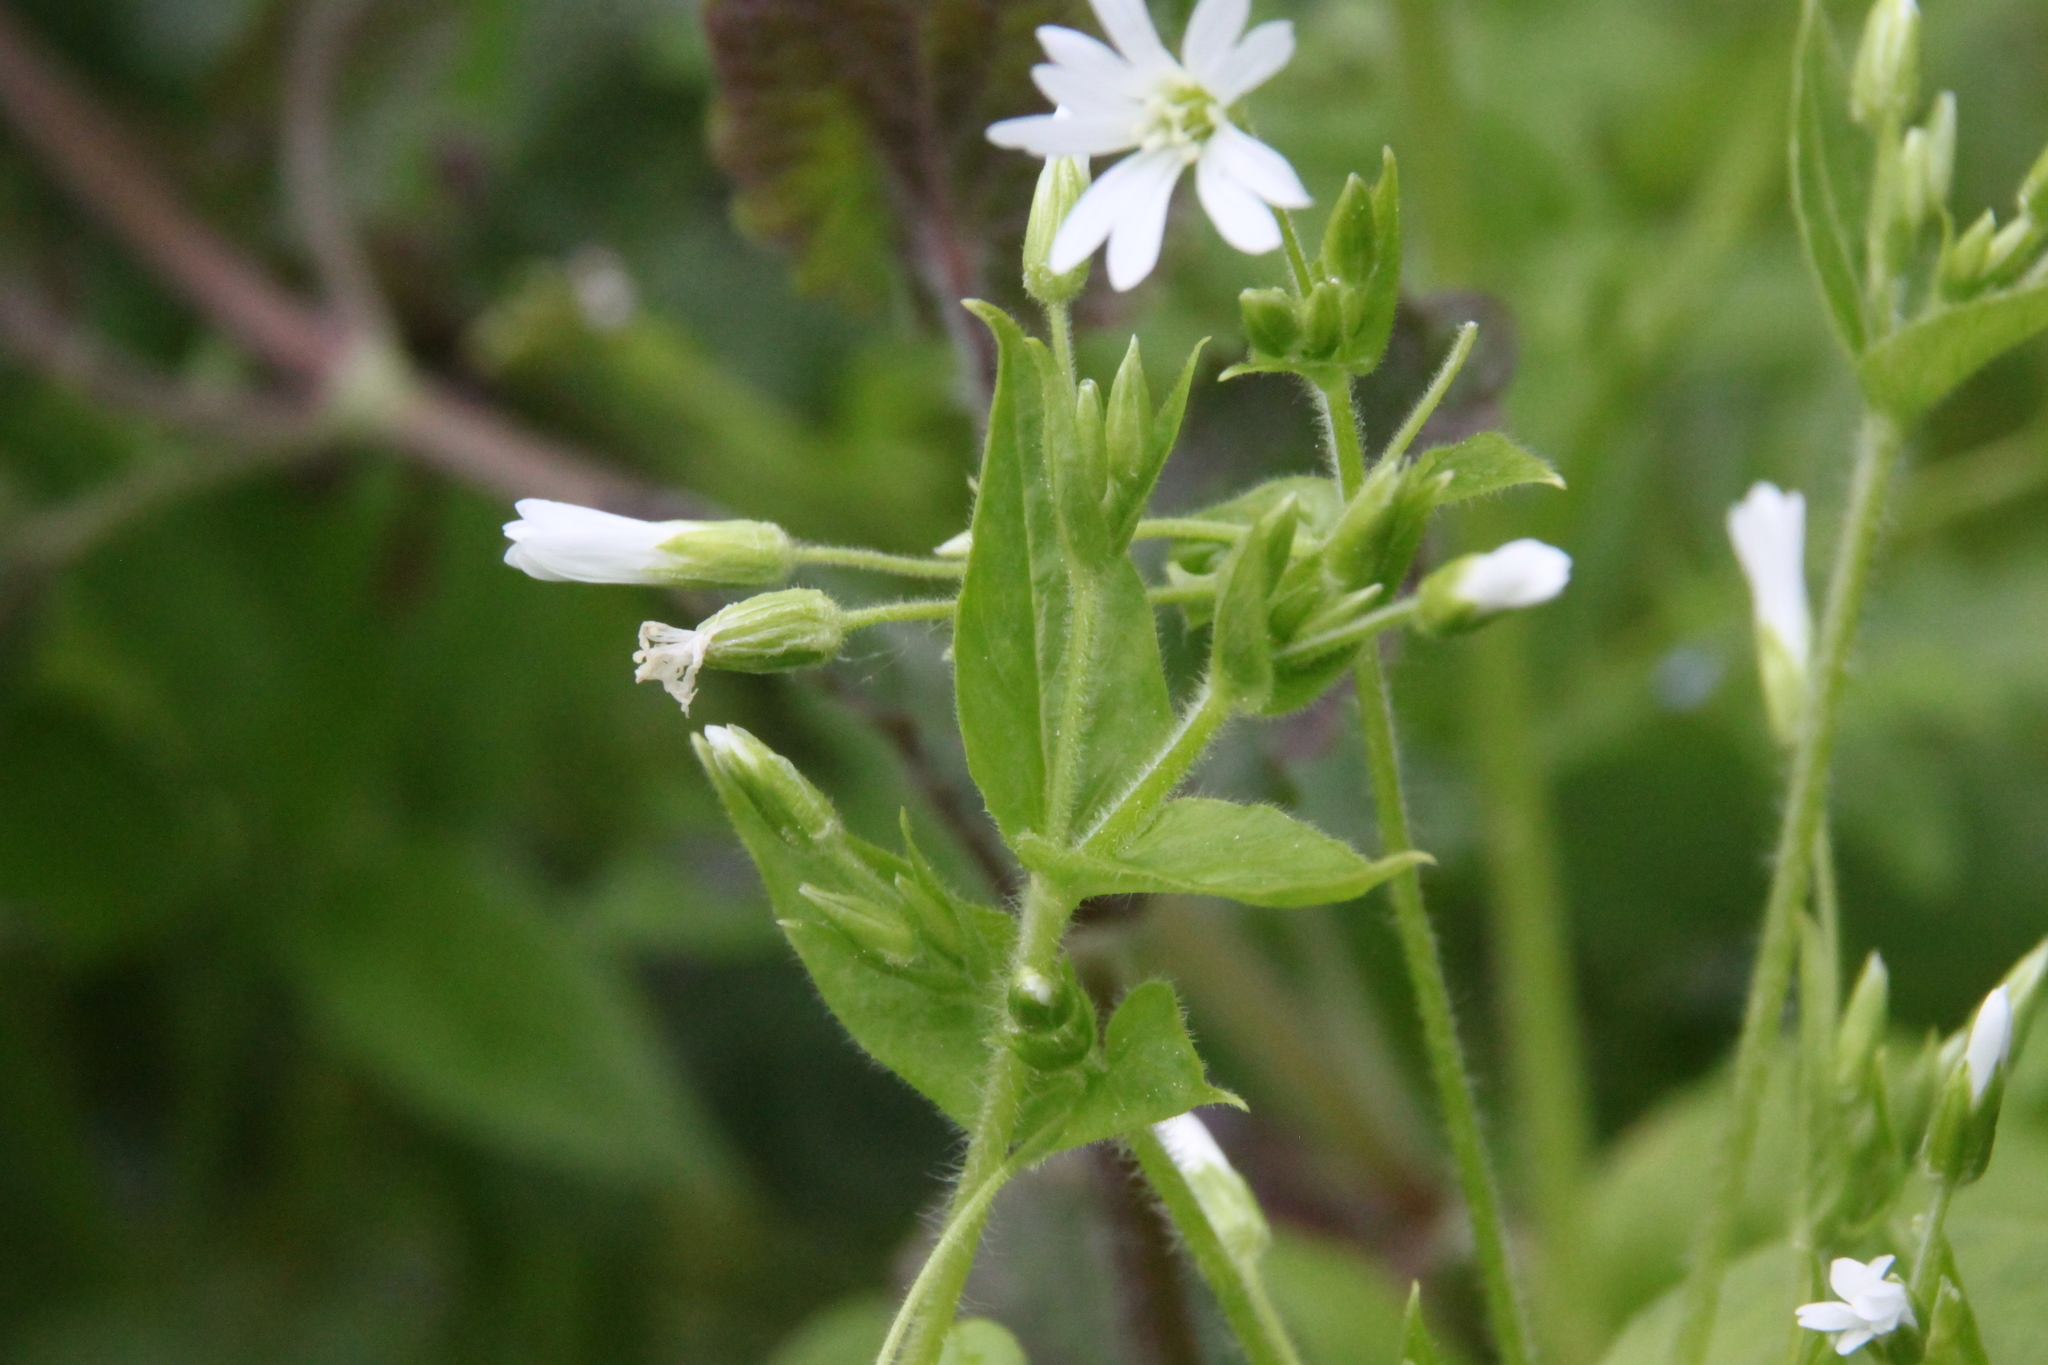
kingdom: Plantae
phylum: Tracheophyta
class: Magnoliopsida
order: Caryophyllales
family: Caryophyllaceae
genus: Stellaria
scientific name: Stellaria nemorum
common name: Wood stitchwort
